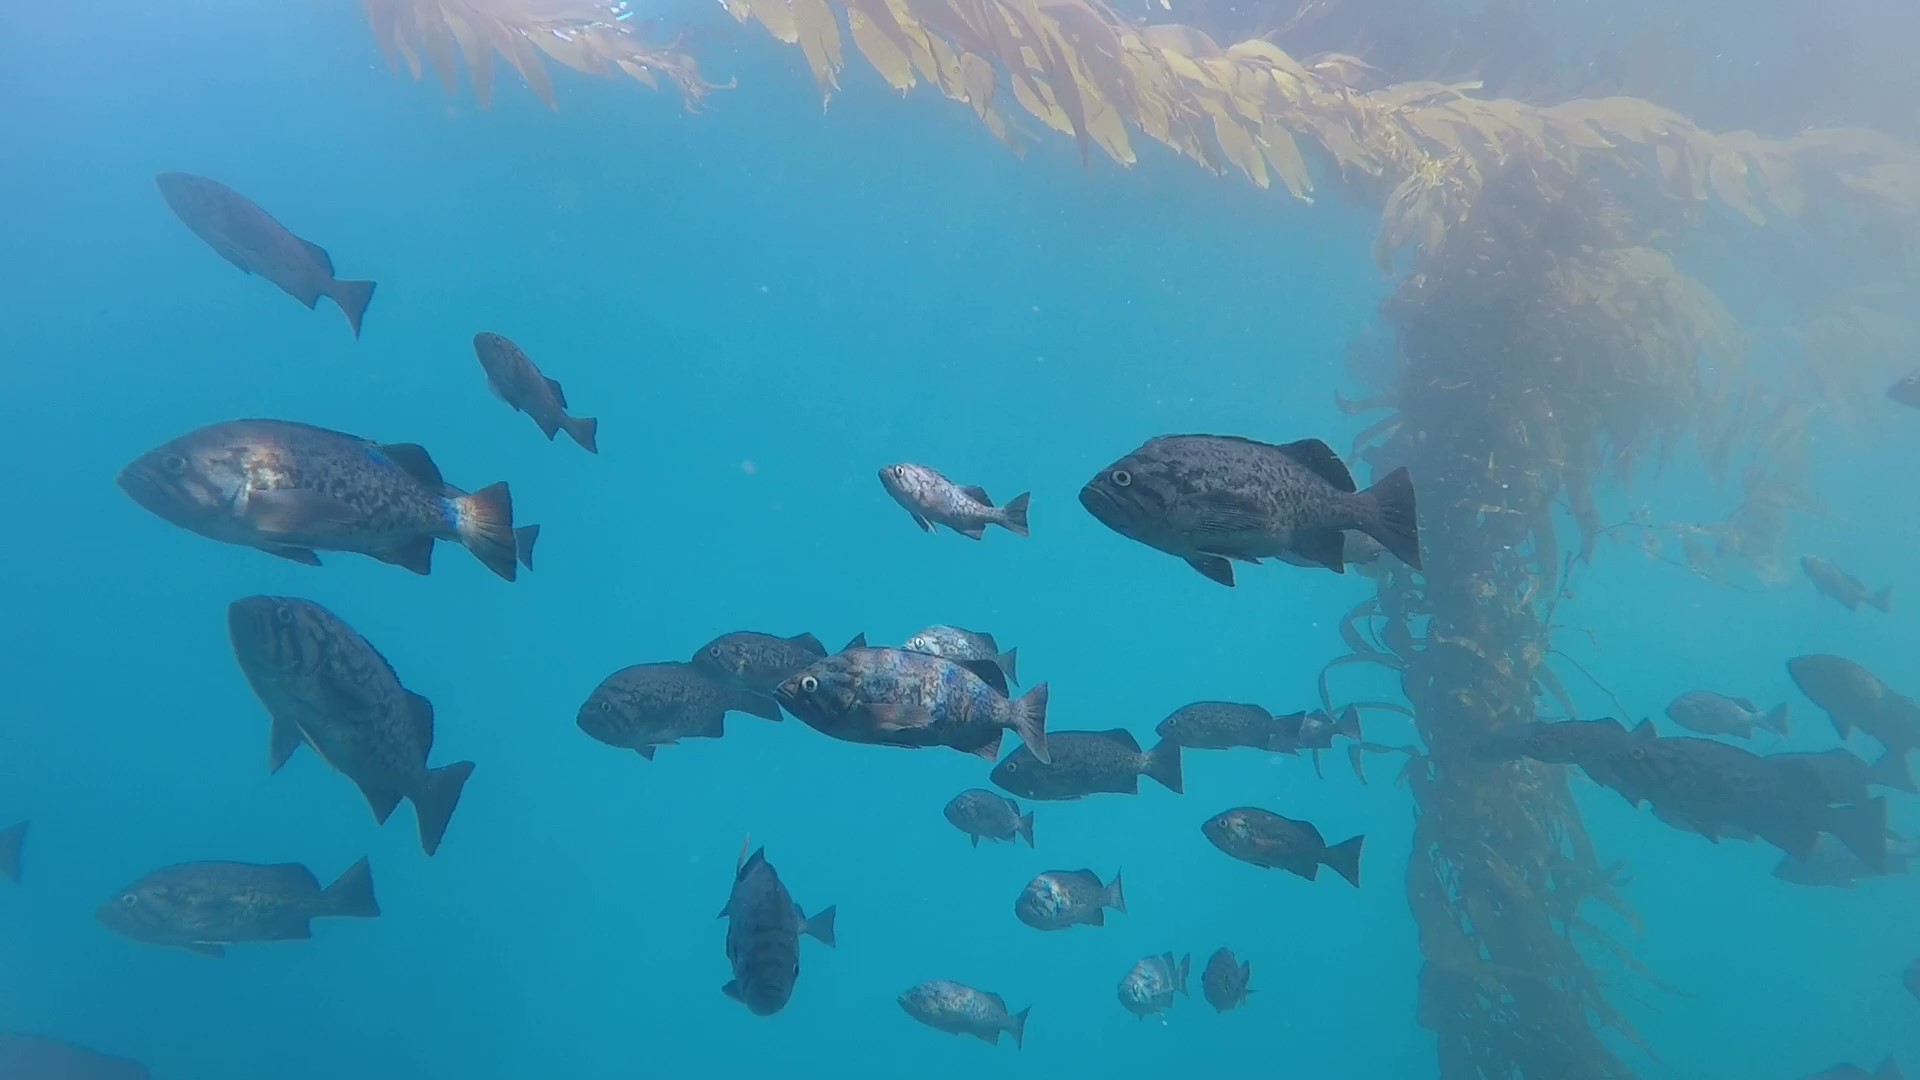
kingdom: Animalia
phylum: Chordata
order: Scorpaeniformes
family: Sebastidae
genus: Sebastes
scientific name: Sebastes mystinus
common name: Blue rockfish
